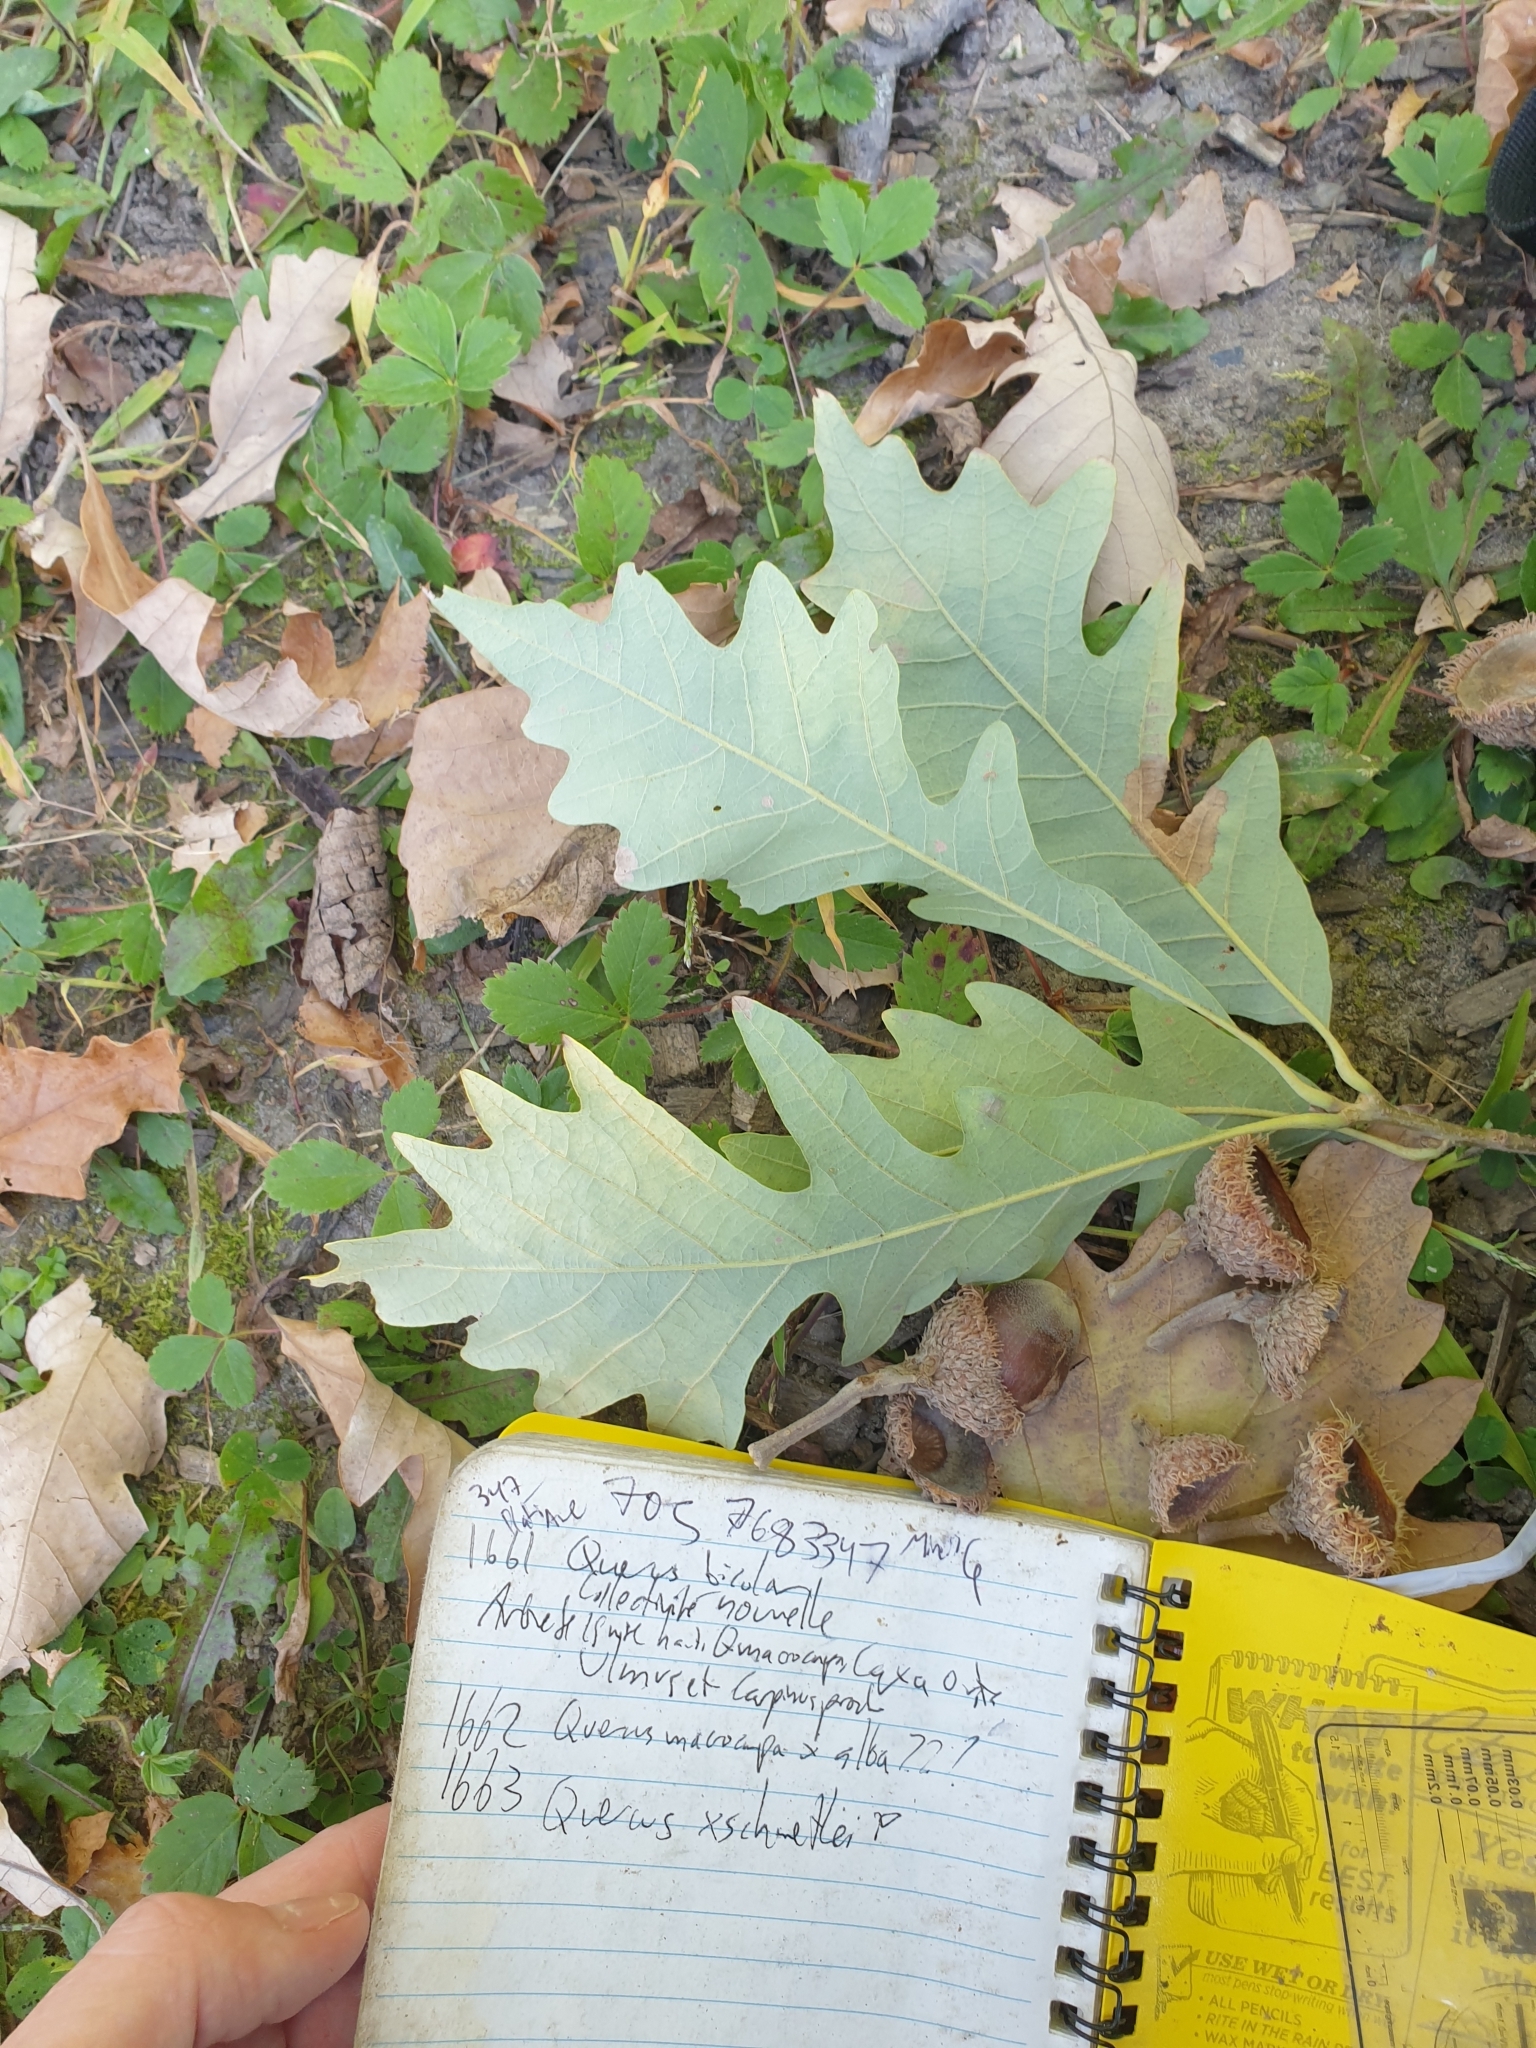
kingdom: Plantae
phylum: Tracheophyta
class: Magnoliopsida
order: Fagales
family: Fagaceae
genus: Quercus
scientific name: Quercus schuettei
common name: Schuette's oak
